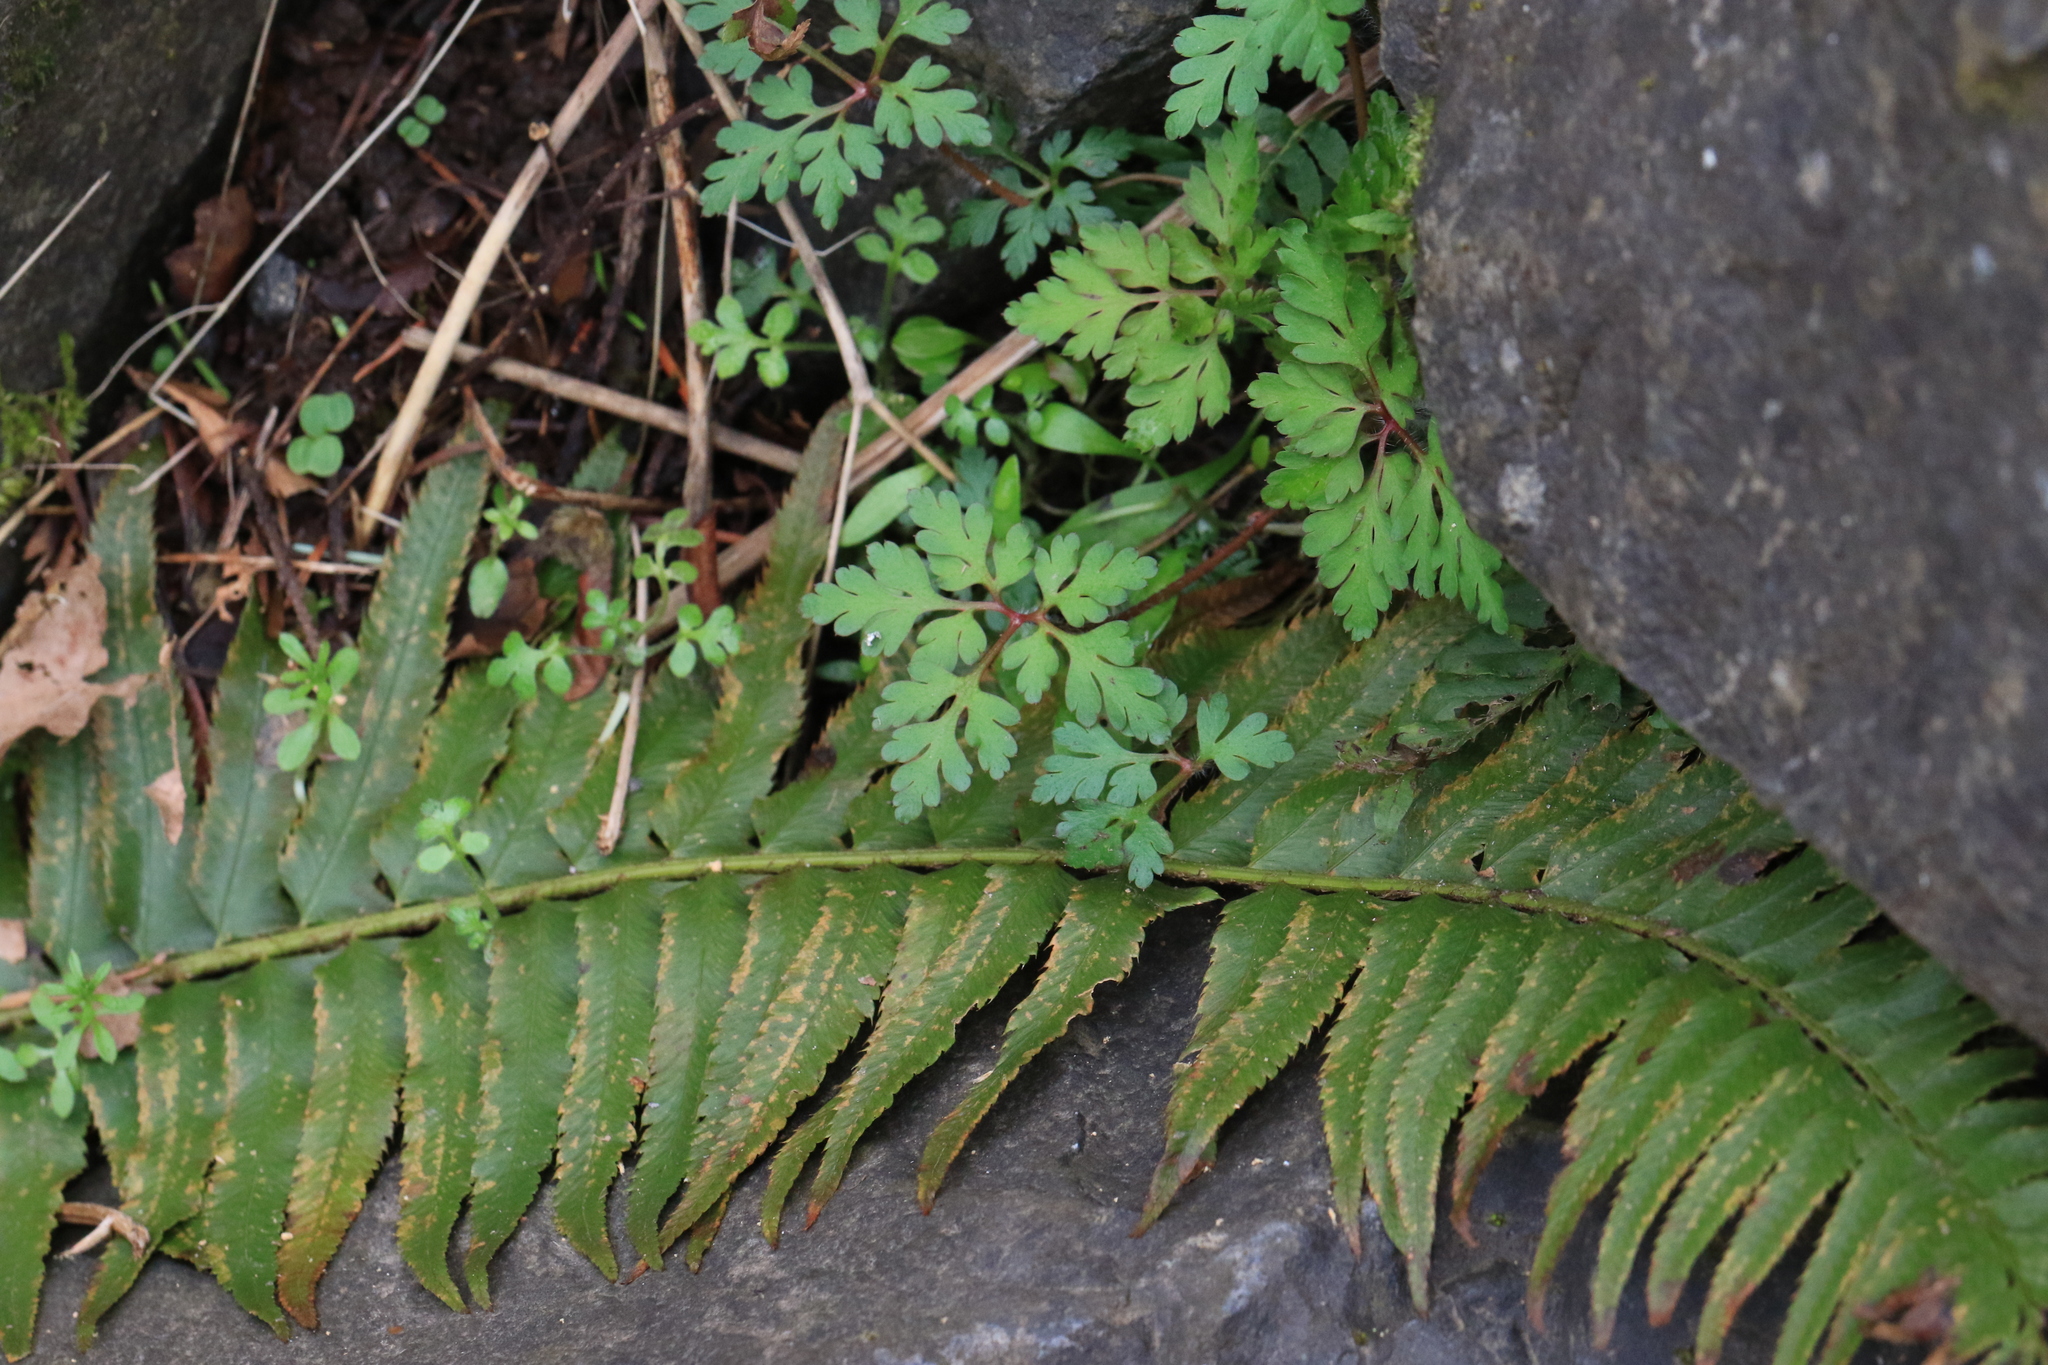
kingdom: Plantae
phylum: Tracheophyta
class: Magnoliopsida
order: Geraniales
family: Geraniaceae
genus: Geranium
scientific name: Geranium robertianum
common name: Herb-robert
